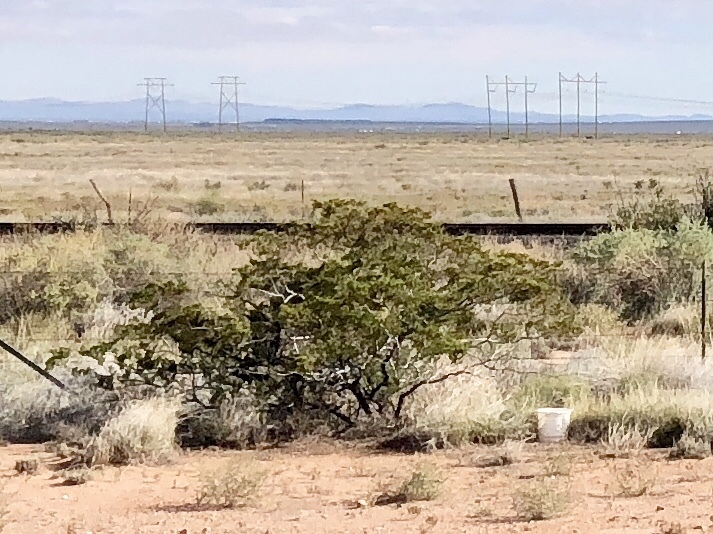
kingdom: Plantae
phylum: Tracheophyta
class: Magnoliopsida
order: Zygophyllales
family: Zygophyllaceae
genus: Larrea
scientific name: Larrea tridentata
